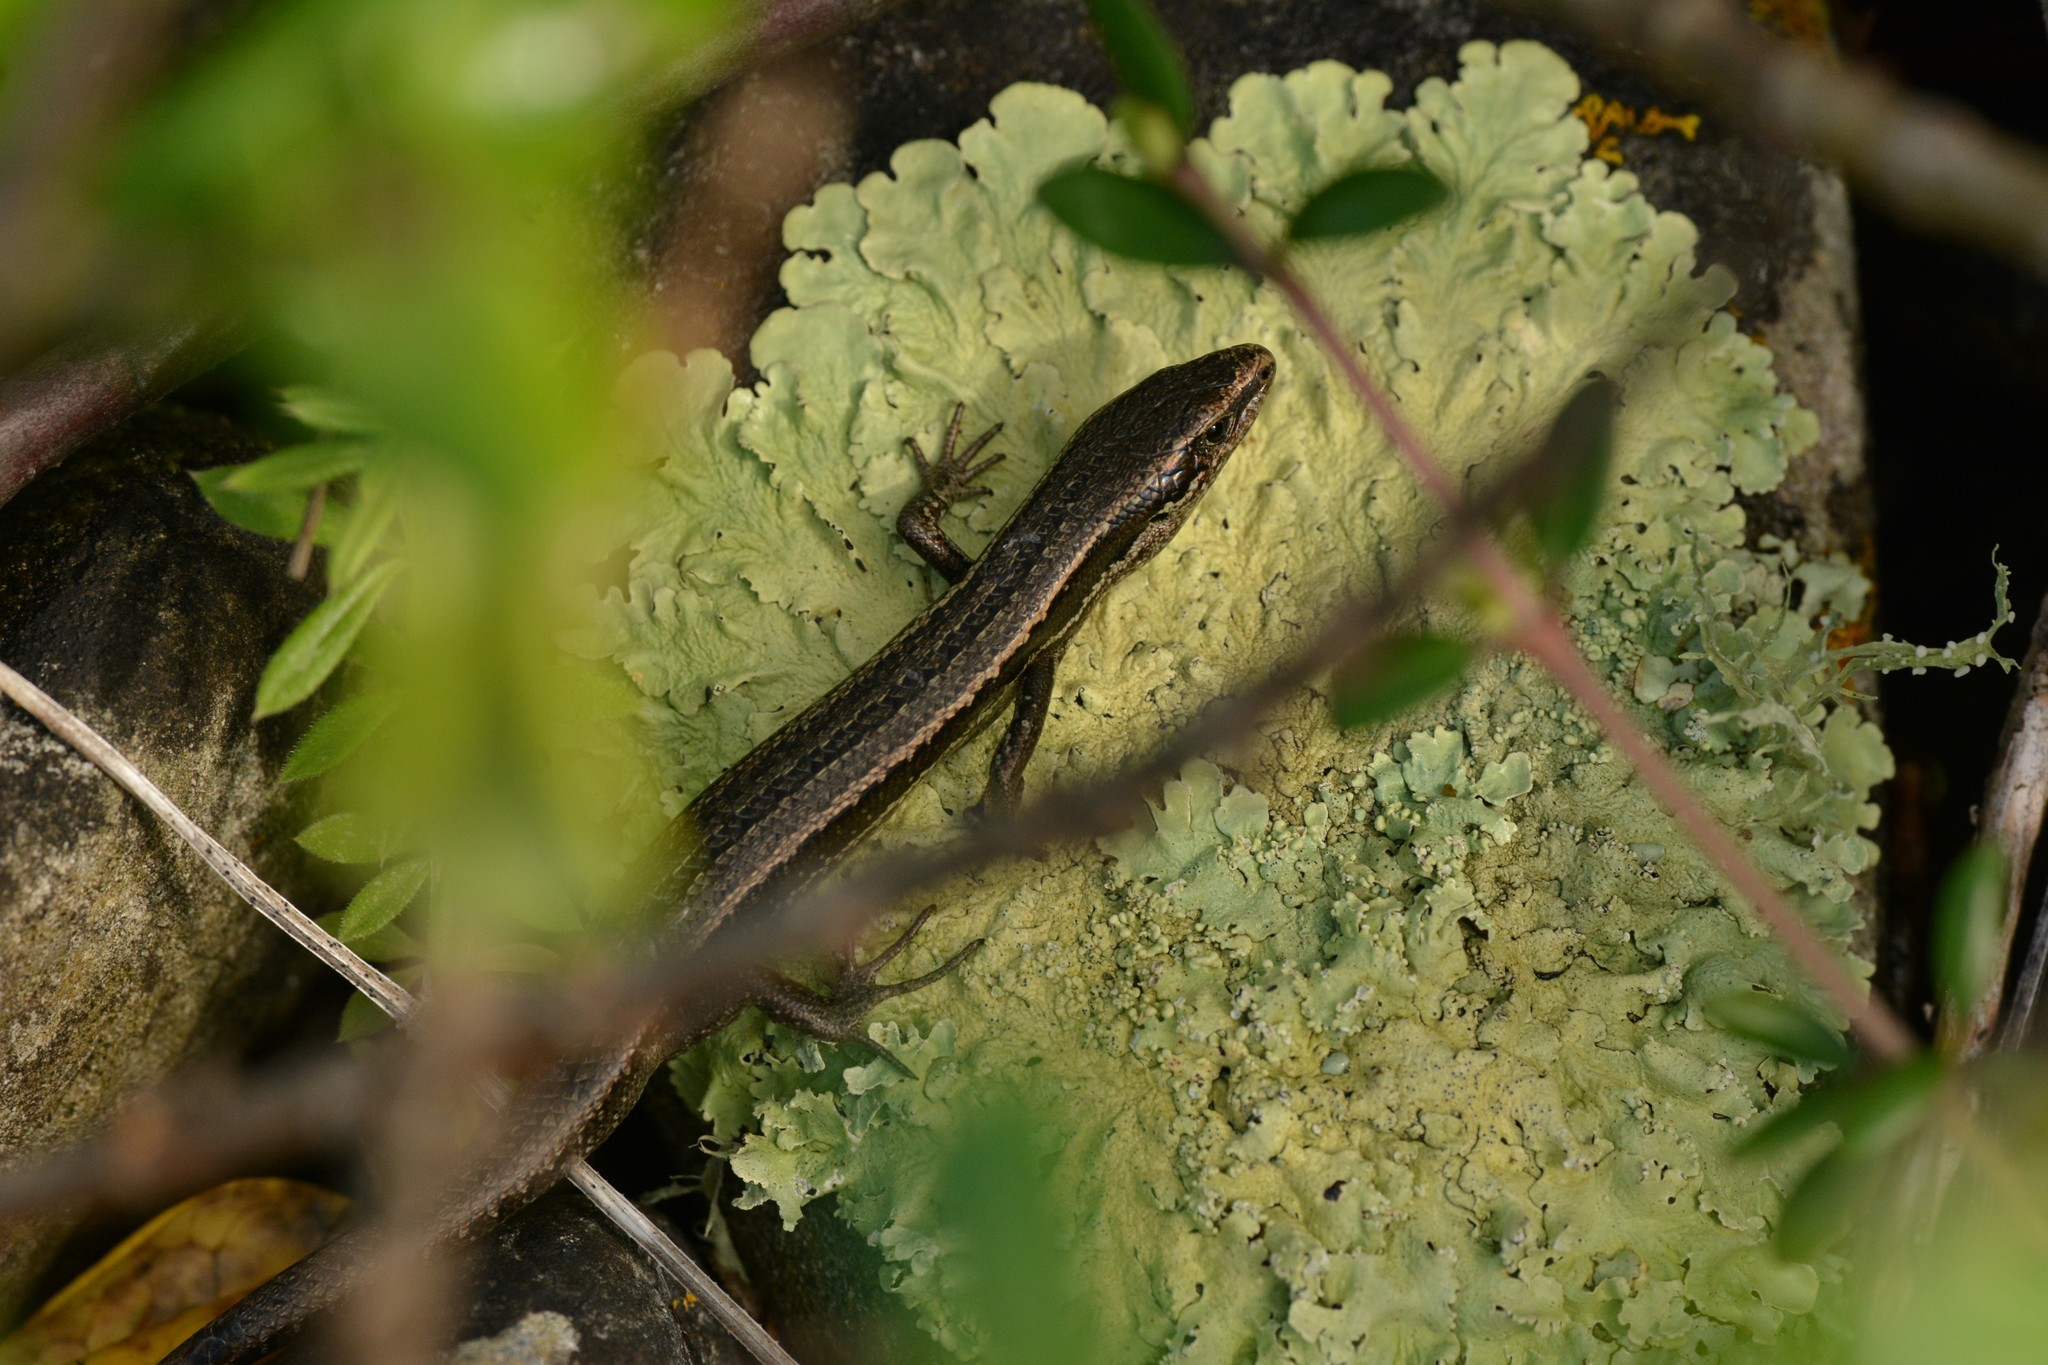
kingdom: Animalia
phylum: Chordata
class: Squamata
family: Scincidae
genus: Oligosoma
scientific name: Oligosoma polychroma
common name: Common new zealand skink
